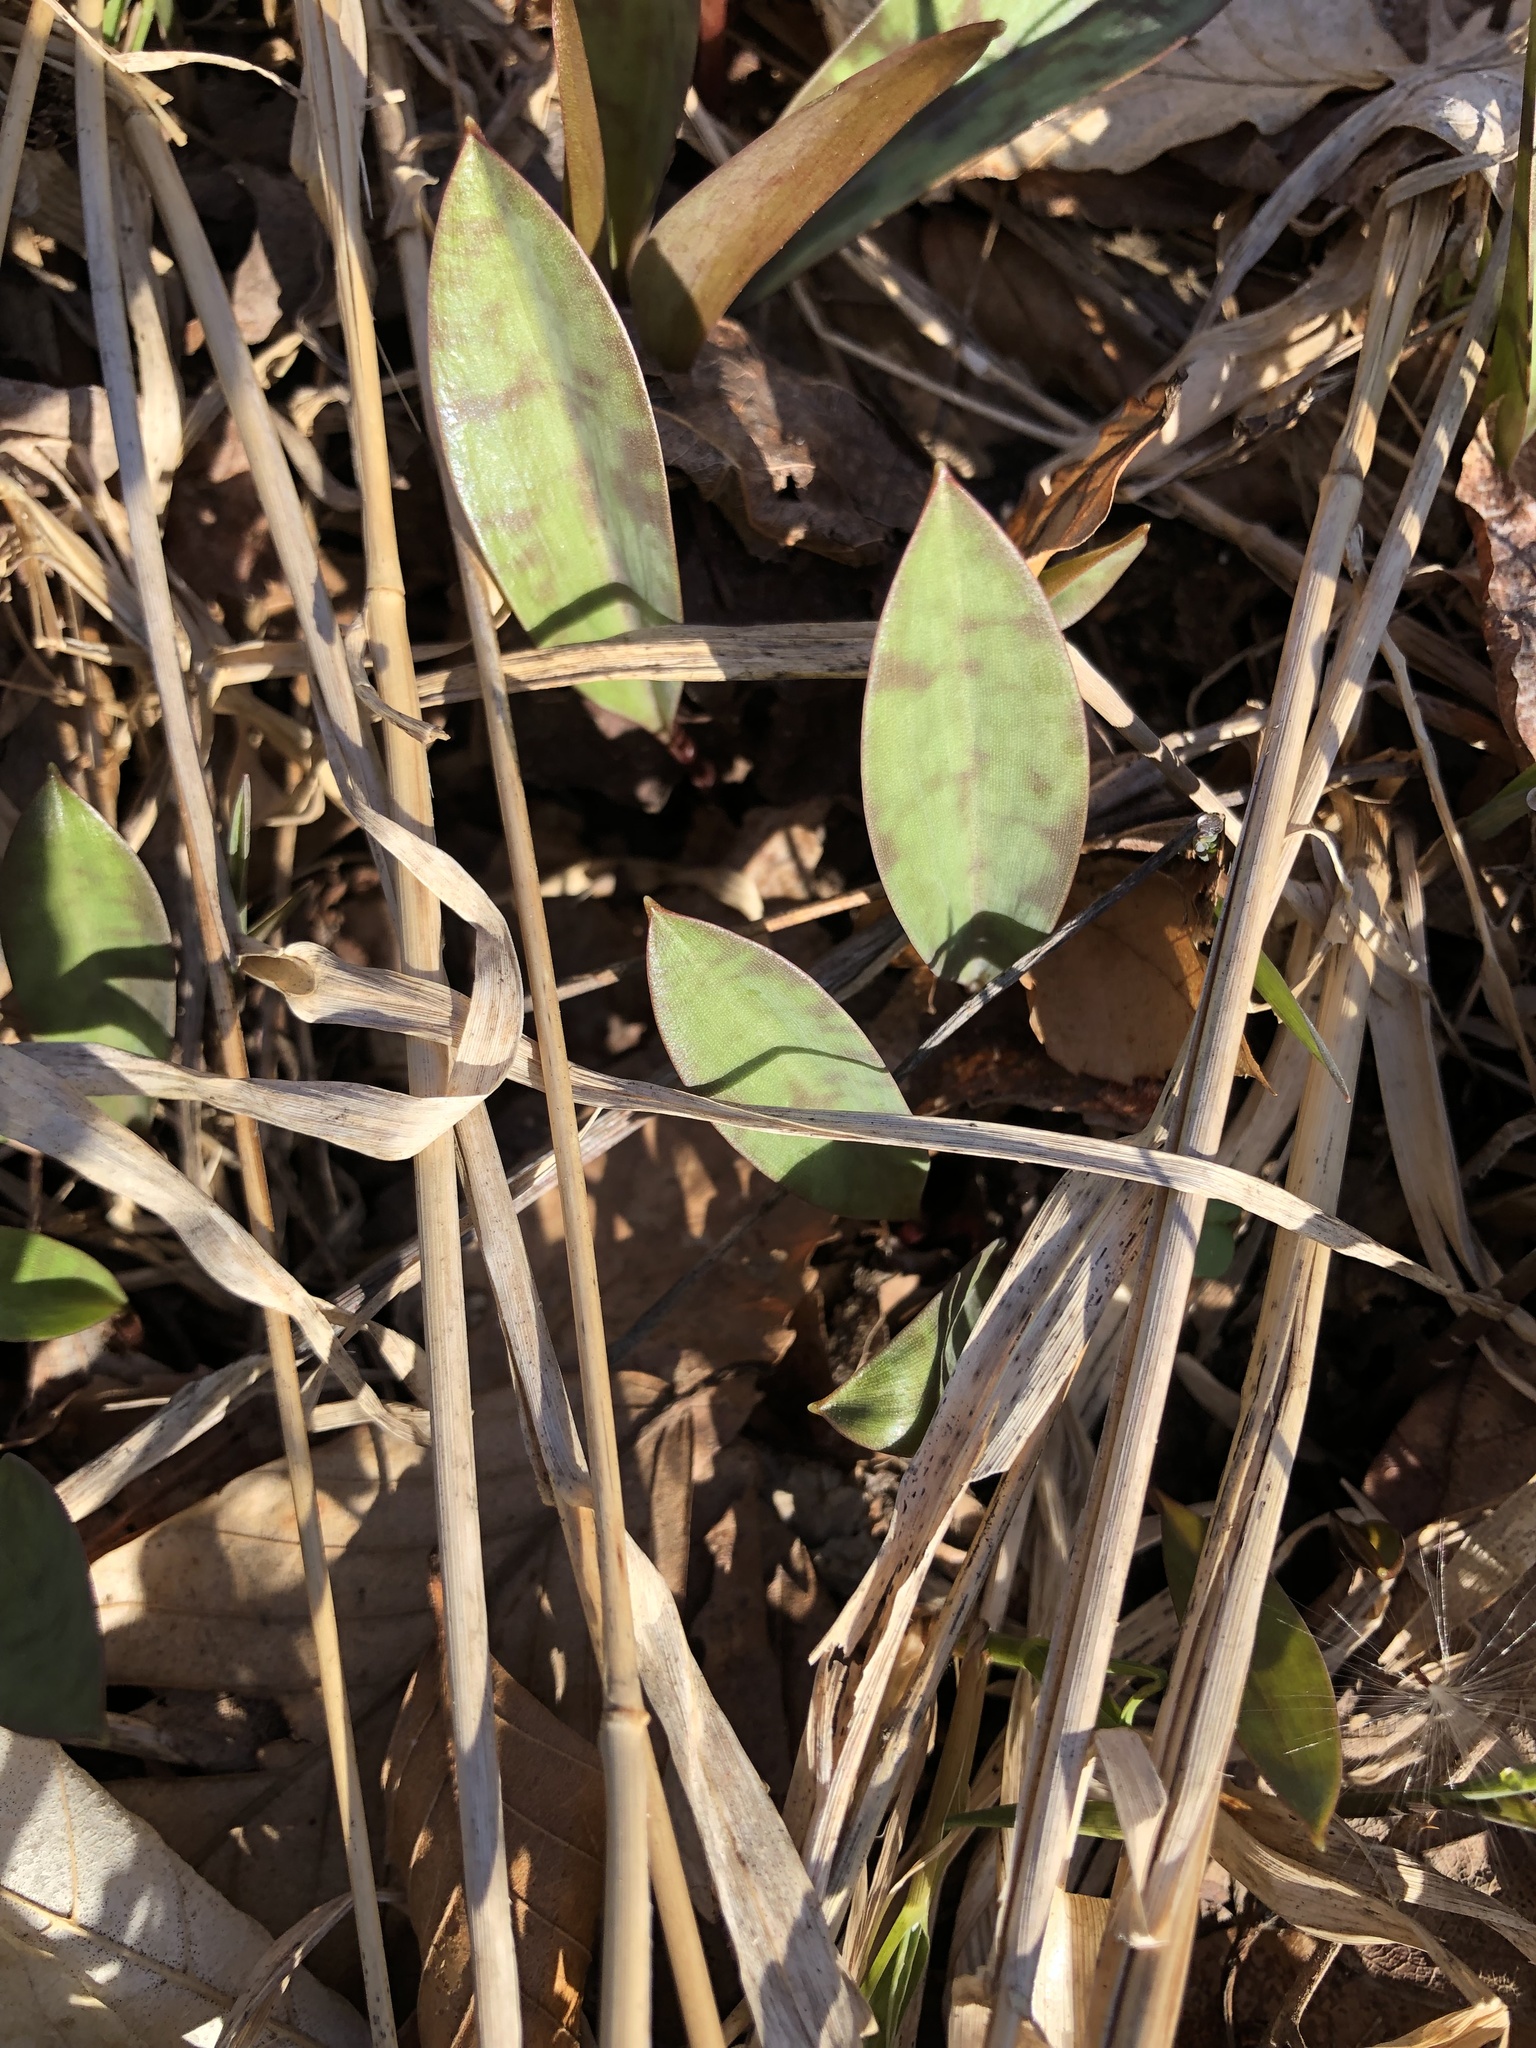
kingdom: Plantae
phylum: Tracheophyta
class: Liliopsida
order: Liliales
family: Liliaceae
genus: Erythronium
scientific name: Erythronium americanum
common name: Yellow adder's-tongue
